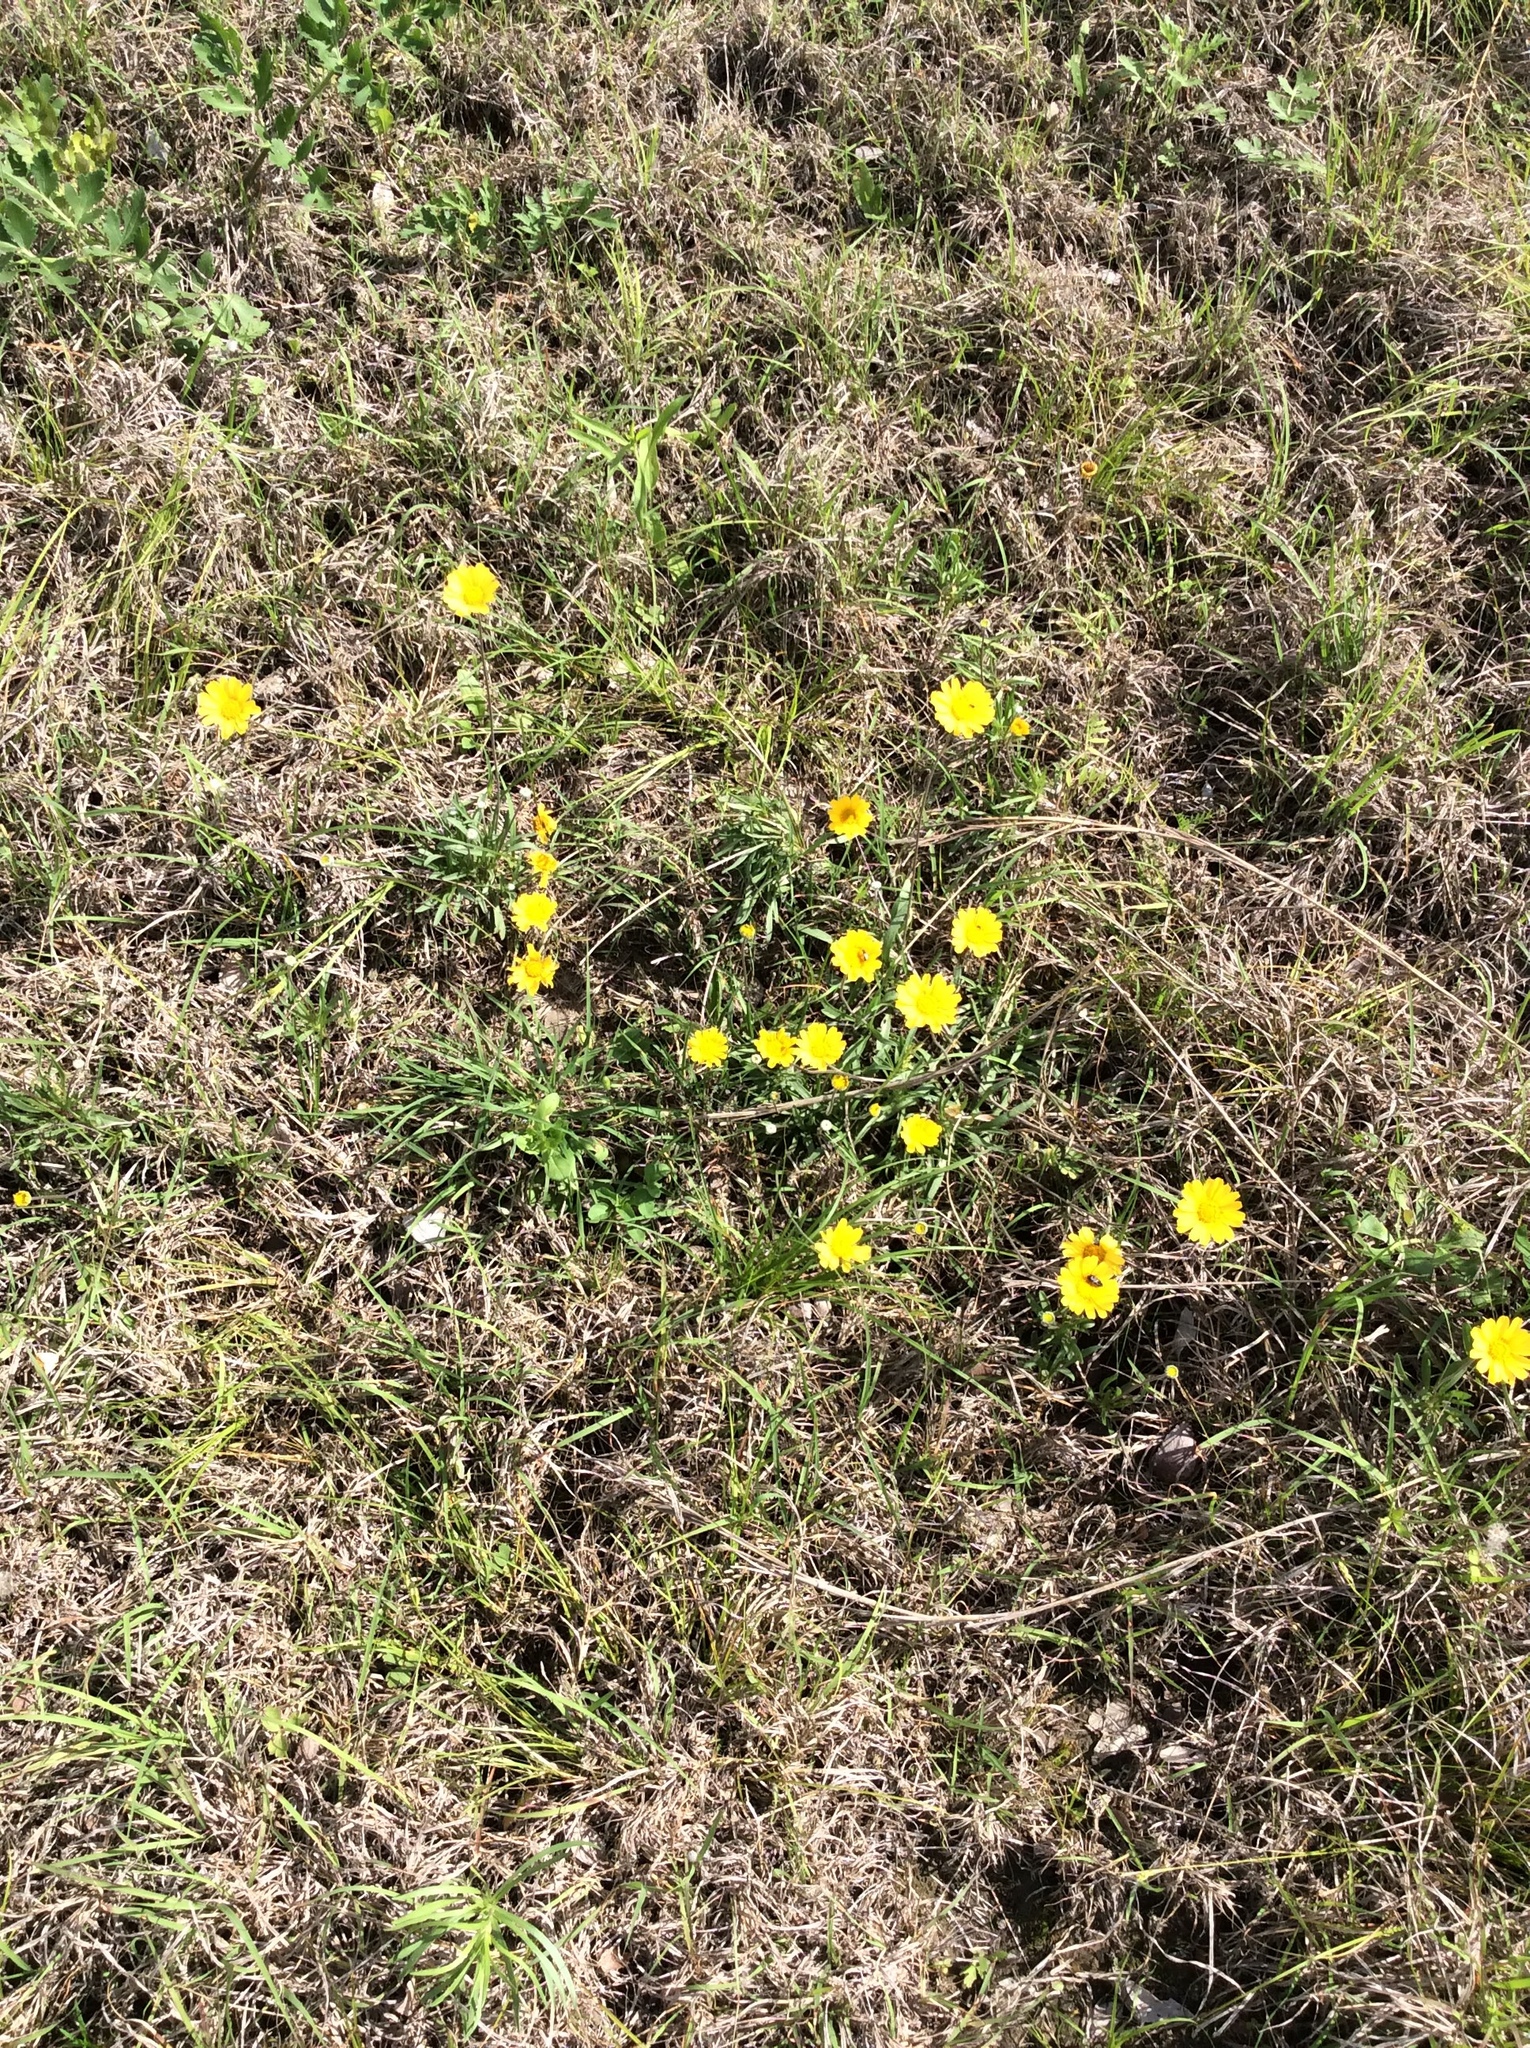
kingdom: Plantae
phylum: Tracheophyta
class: Magnoliopsida
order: Asterales
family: Asteraceae
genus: Tetraneuris
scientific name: Tetraneuris scaposa
